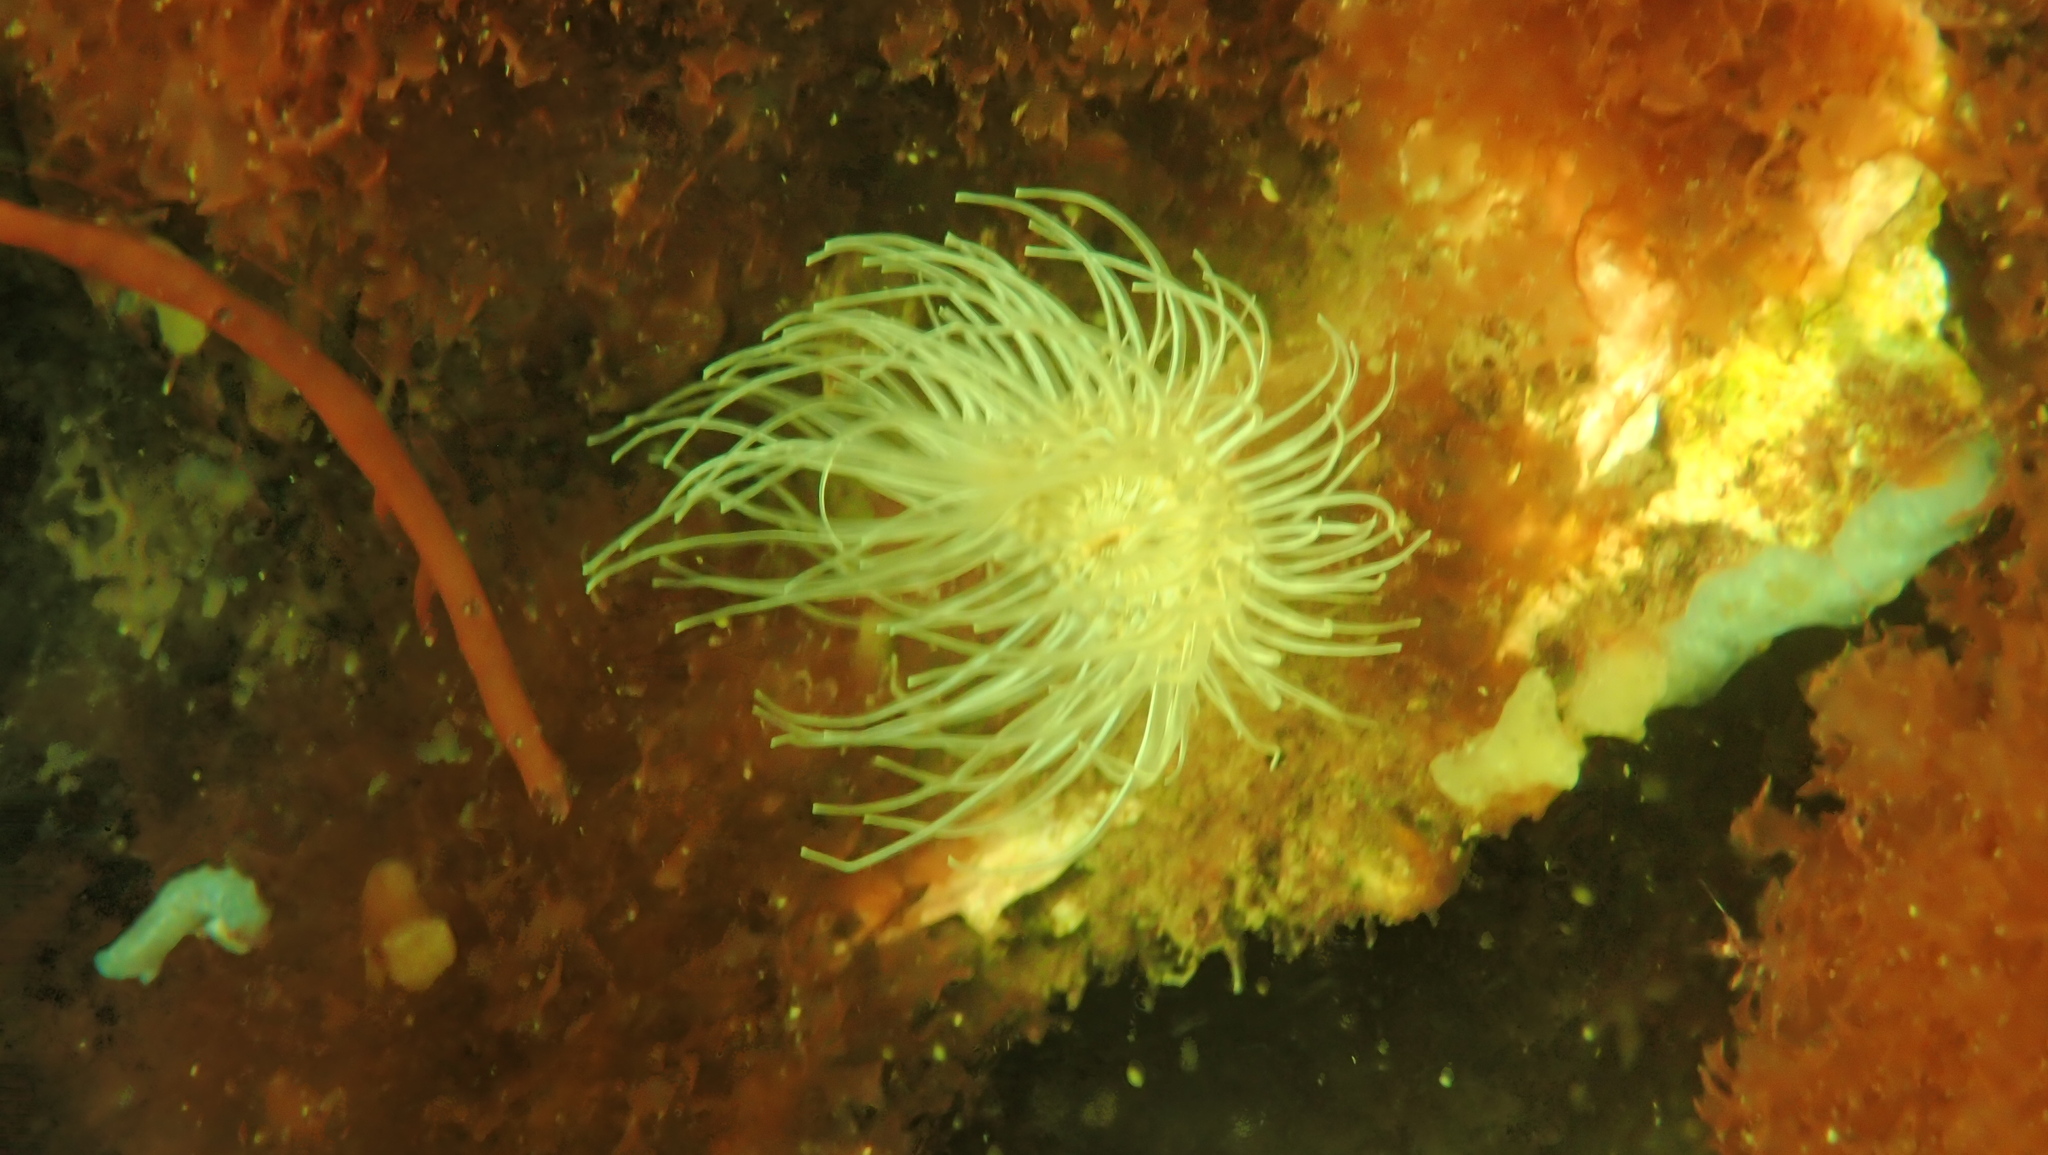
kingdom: Animalia
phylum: Cnidaria
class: Anthozoa
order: Actiniaria
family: Sagartiidae
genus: Sagartia
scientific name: Sagartia undata
